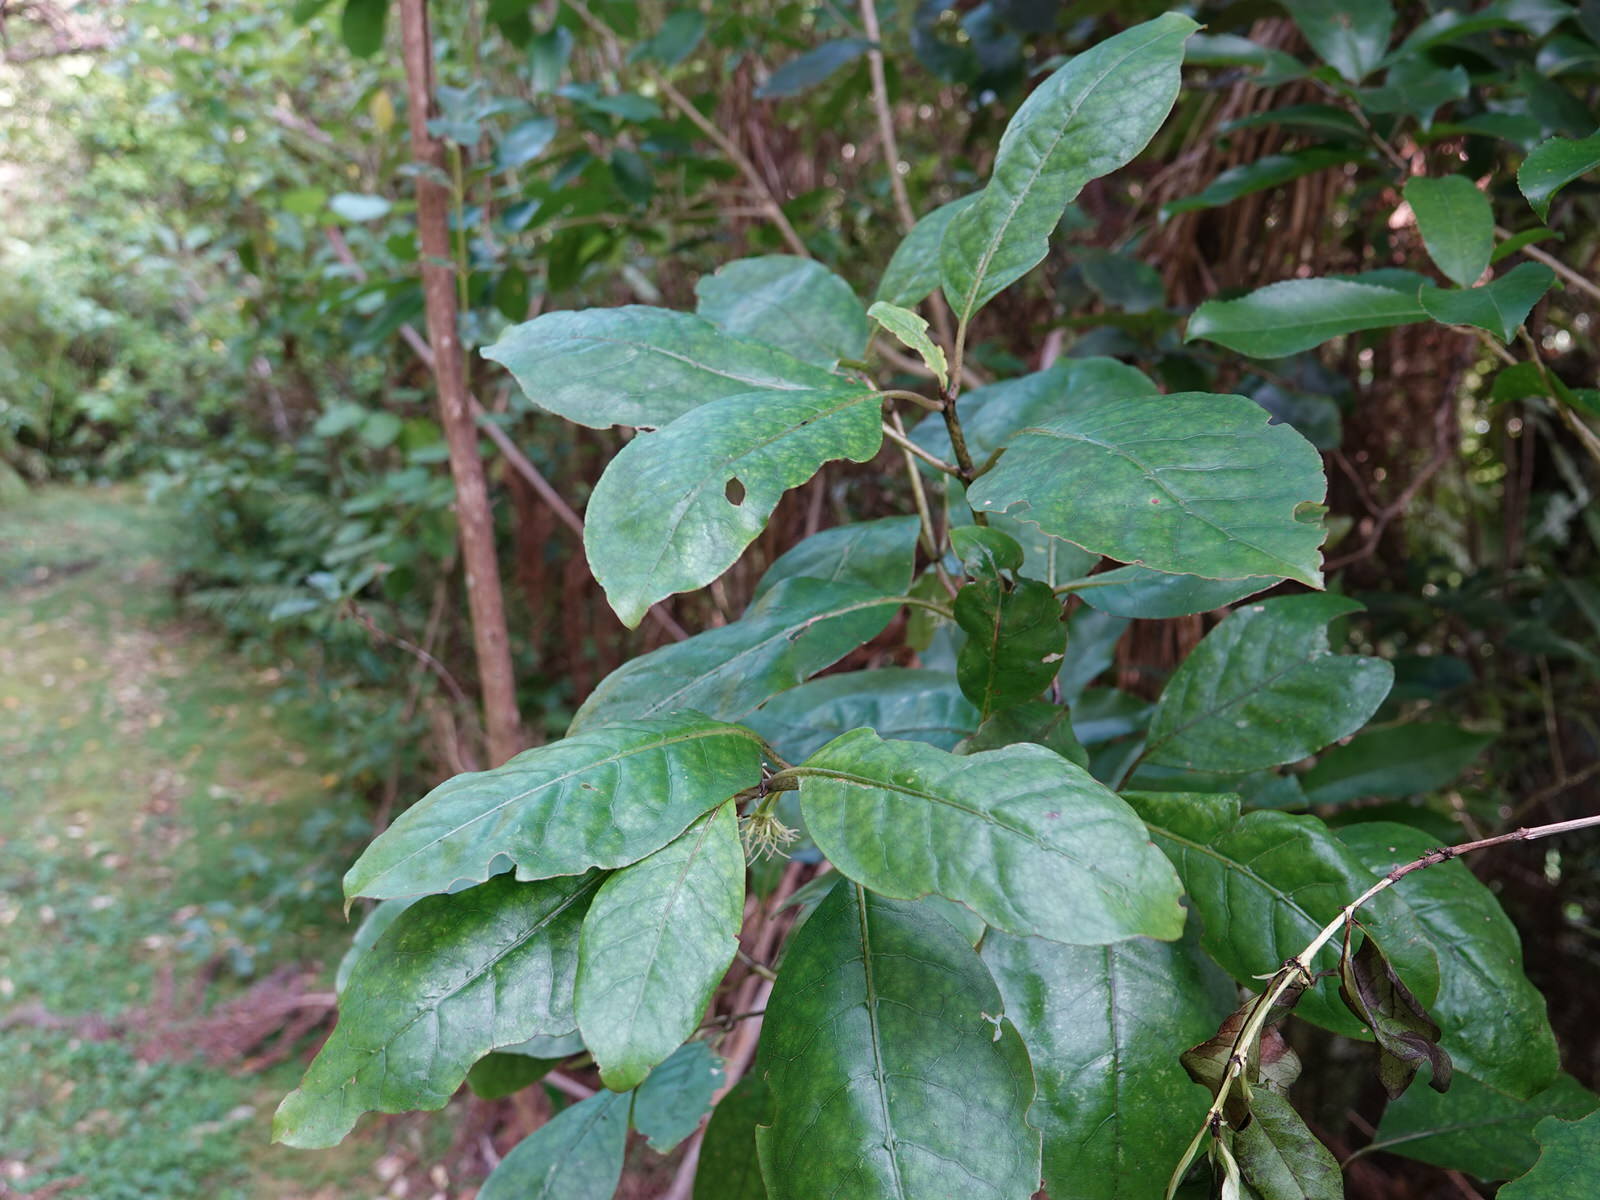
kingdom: Plantae
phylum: Tracheophyta
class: Magnoliopsida
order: Gentianales
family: Rubiaceae
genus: Coprosma
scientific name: Coprosma autumnalis
